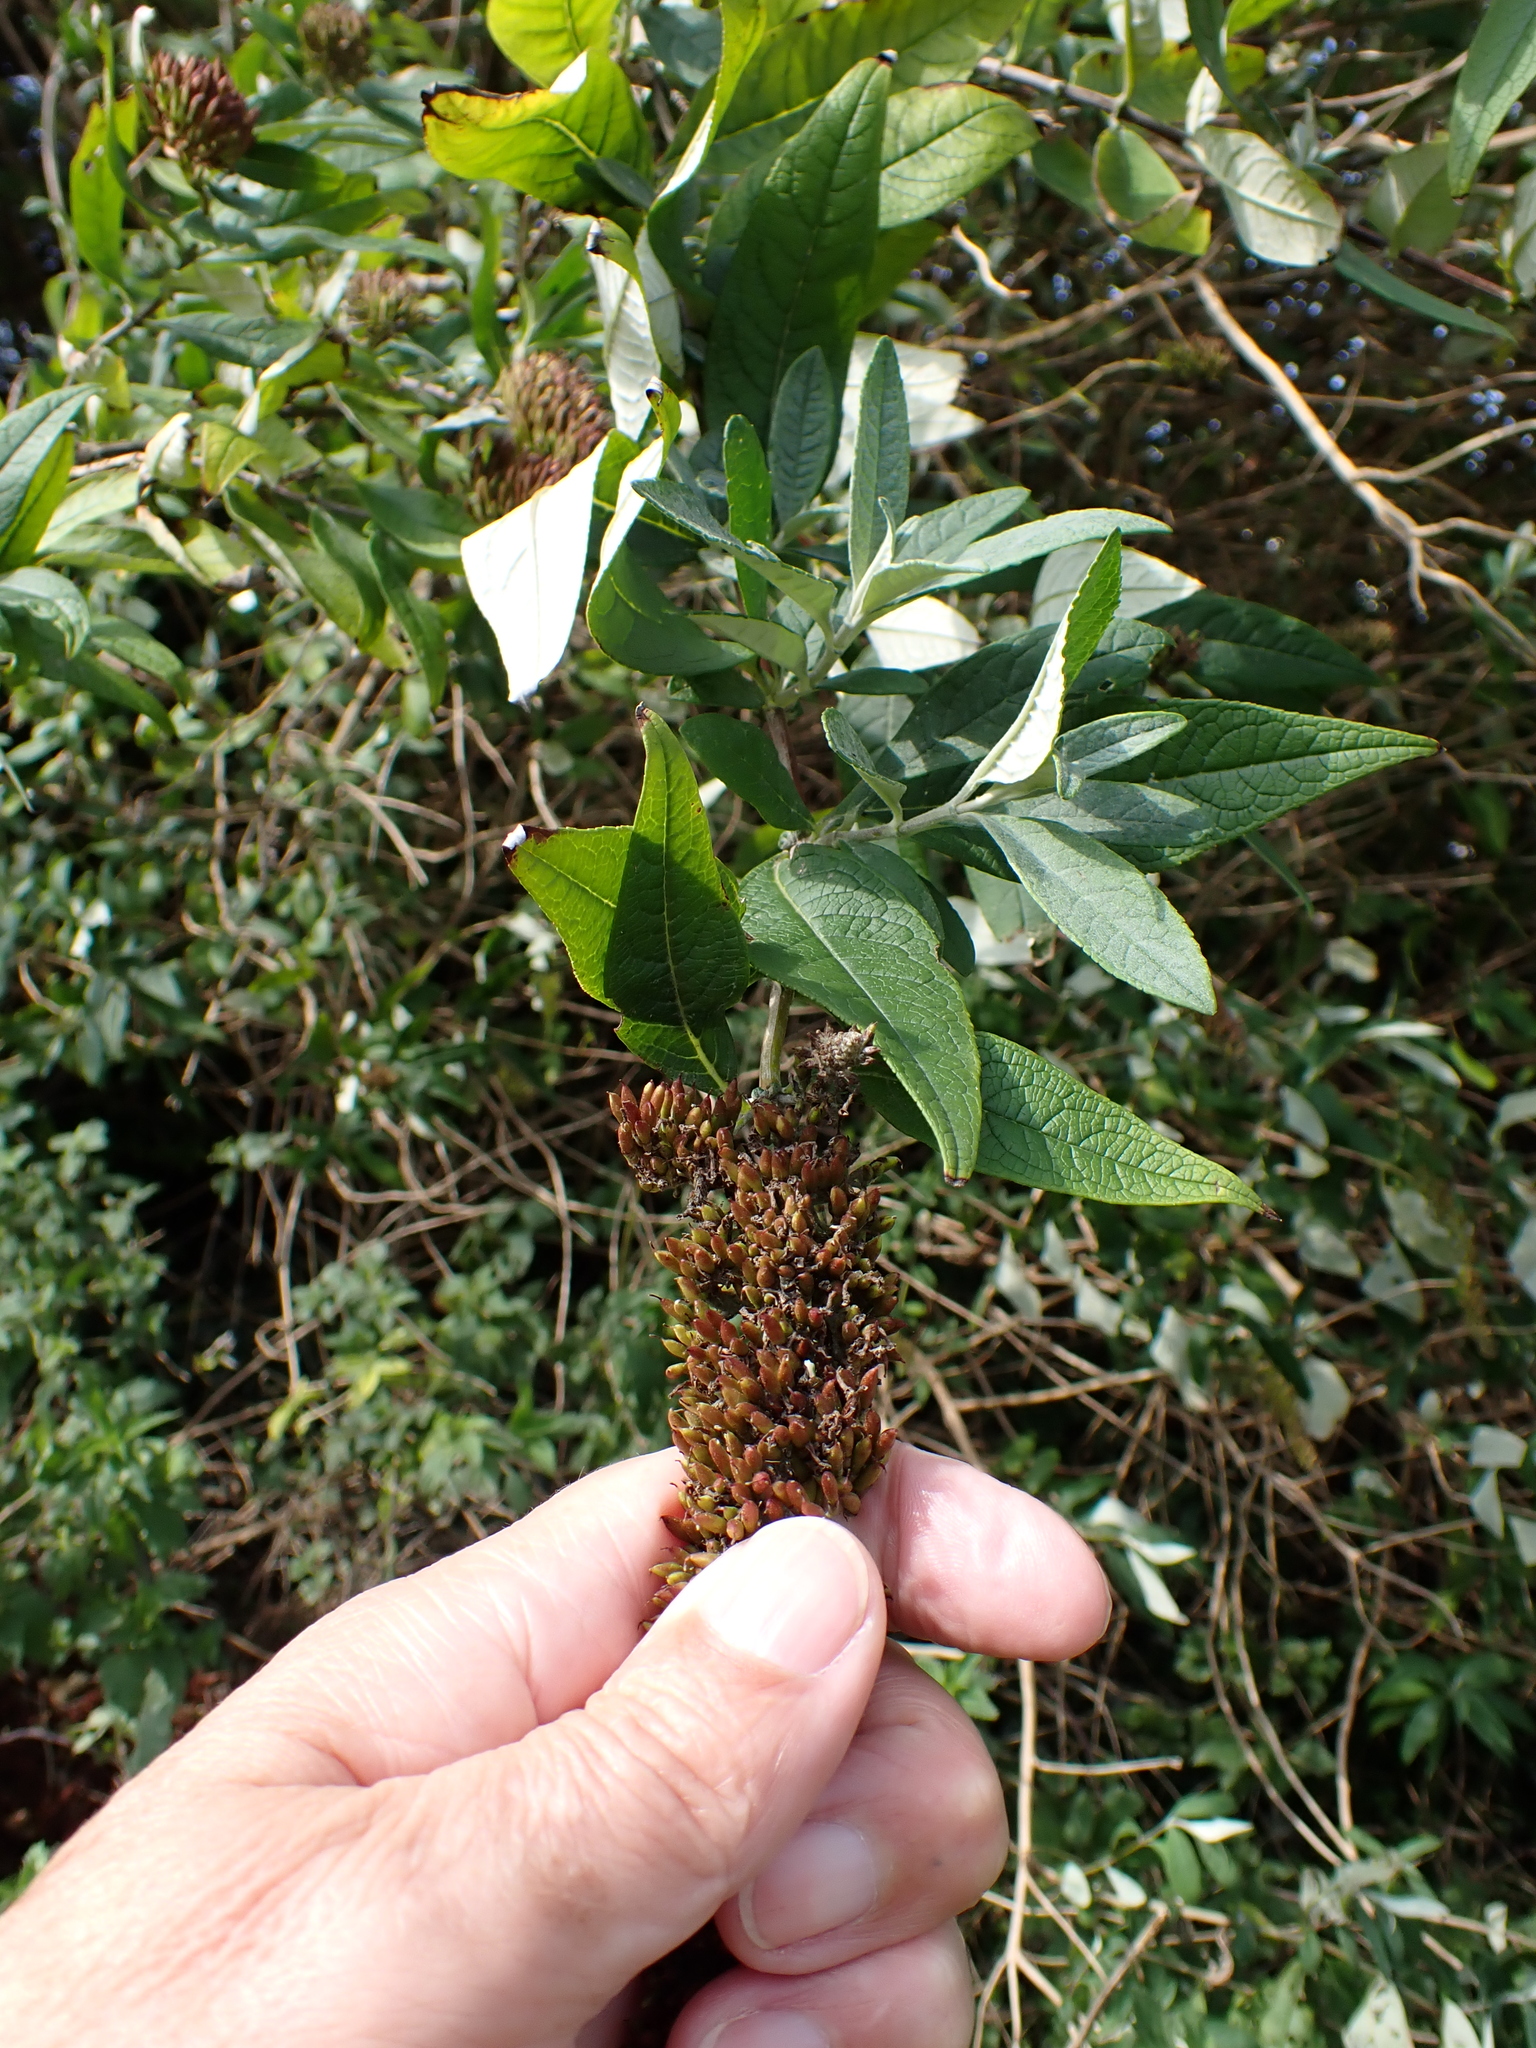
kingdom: Plantae
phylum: Tracheophyta
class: Magnoliopsida
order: Lamiales
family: Scrophulariaceae
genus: Buddleja
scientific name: Buddleja davidii
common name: Butterfly-bush
